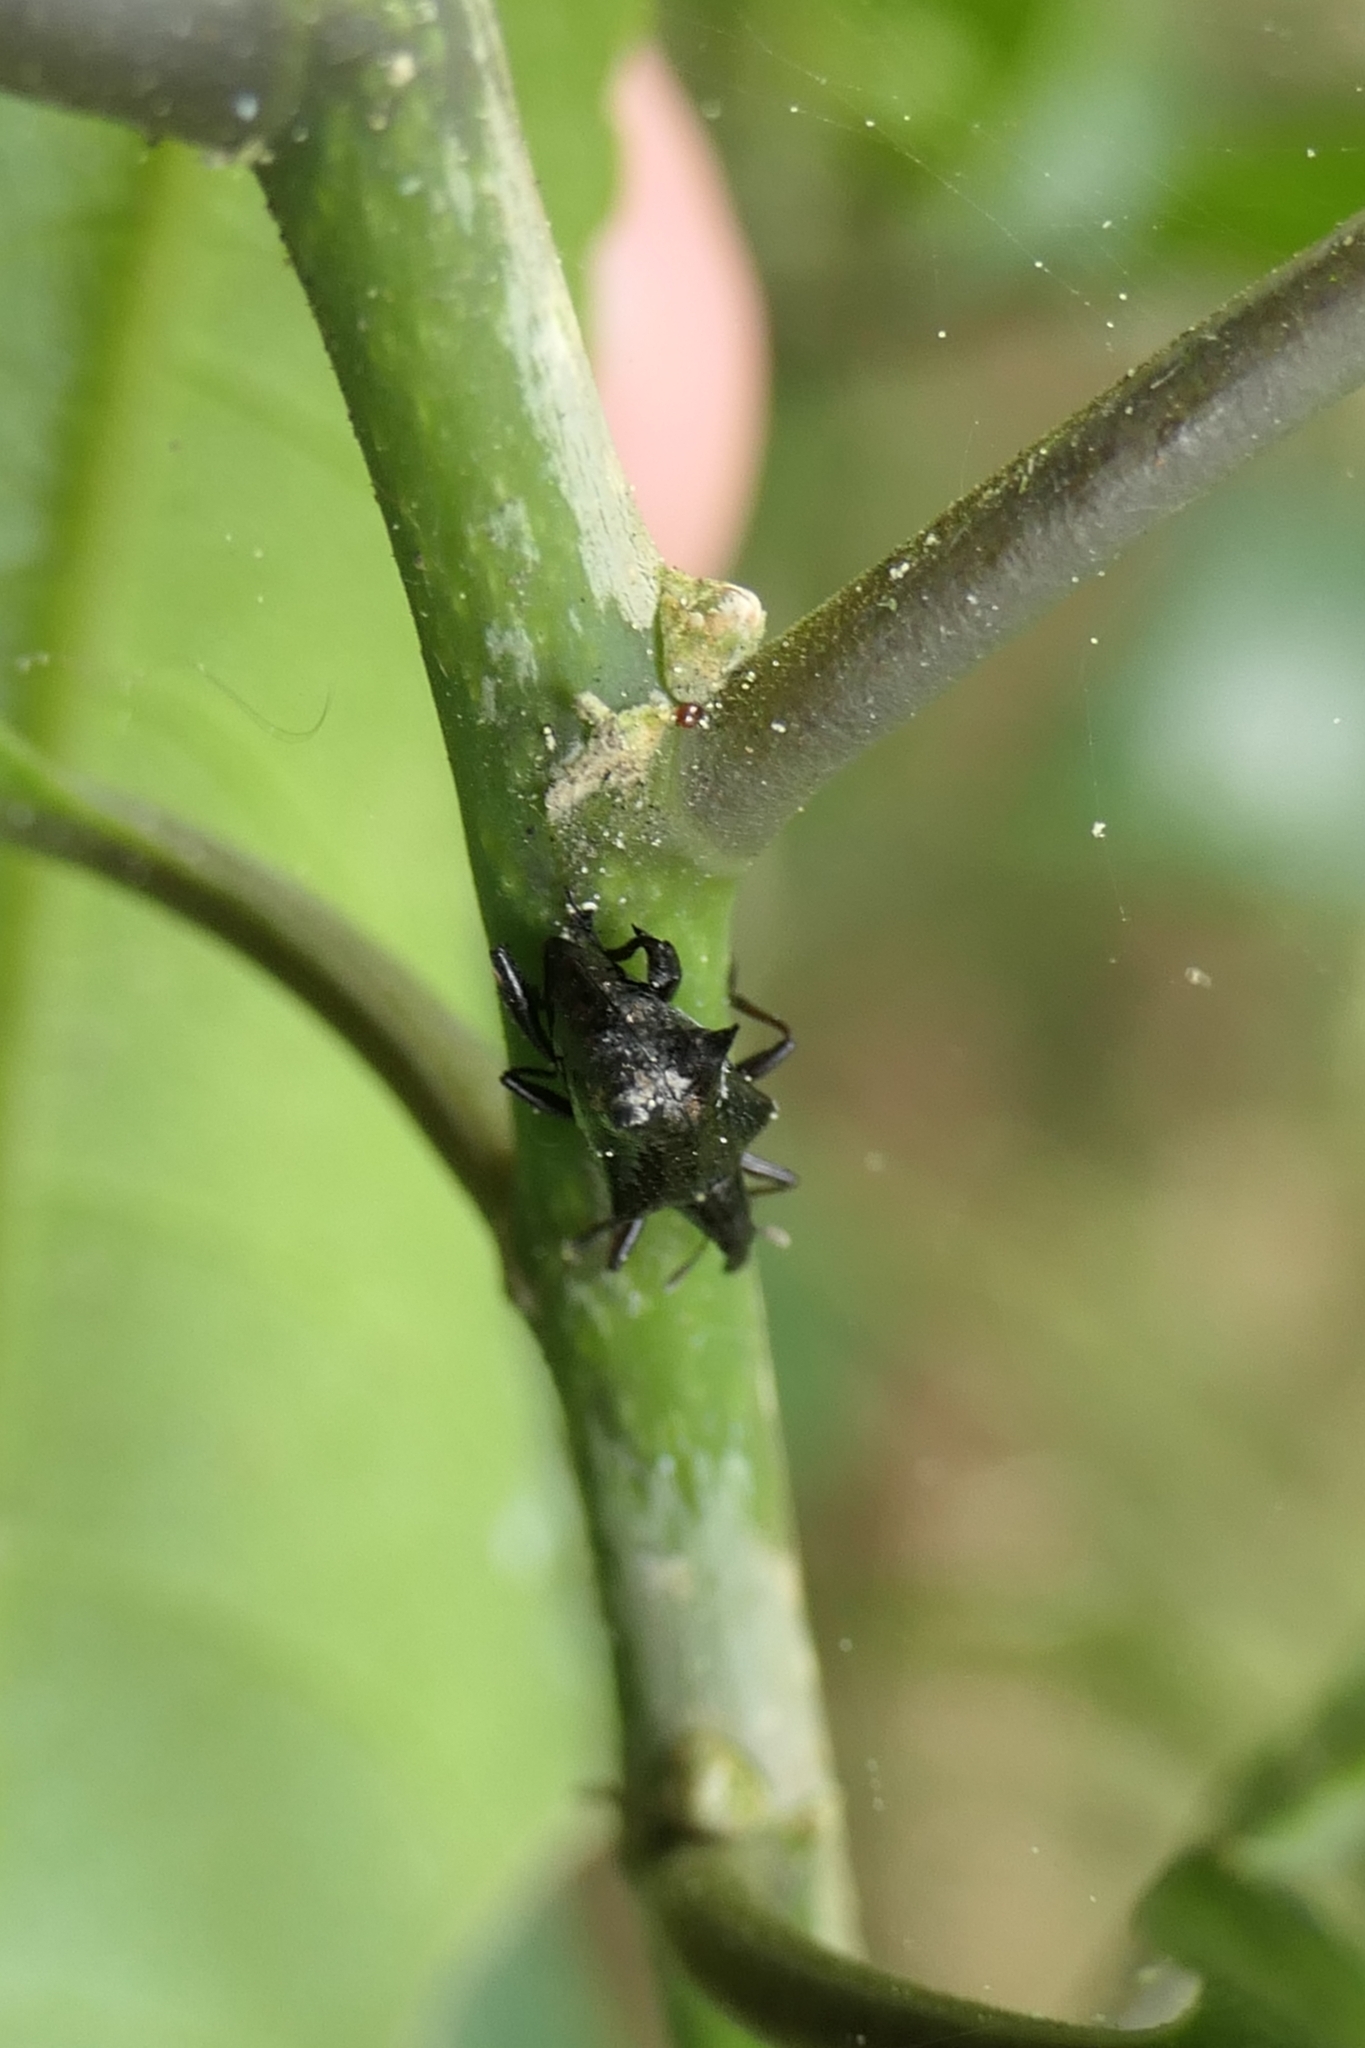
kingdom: Animalia
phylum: Arthropoda
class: Insecta
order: Coleoptera
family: Curculionidae
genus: Scolopterus
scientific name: Scolopterus penicillatus
